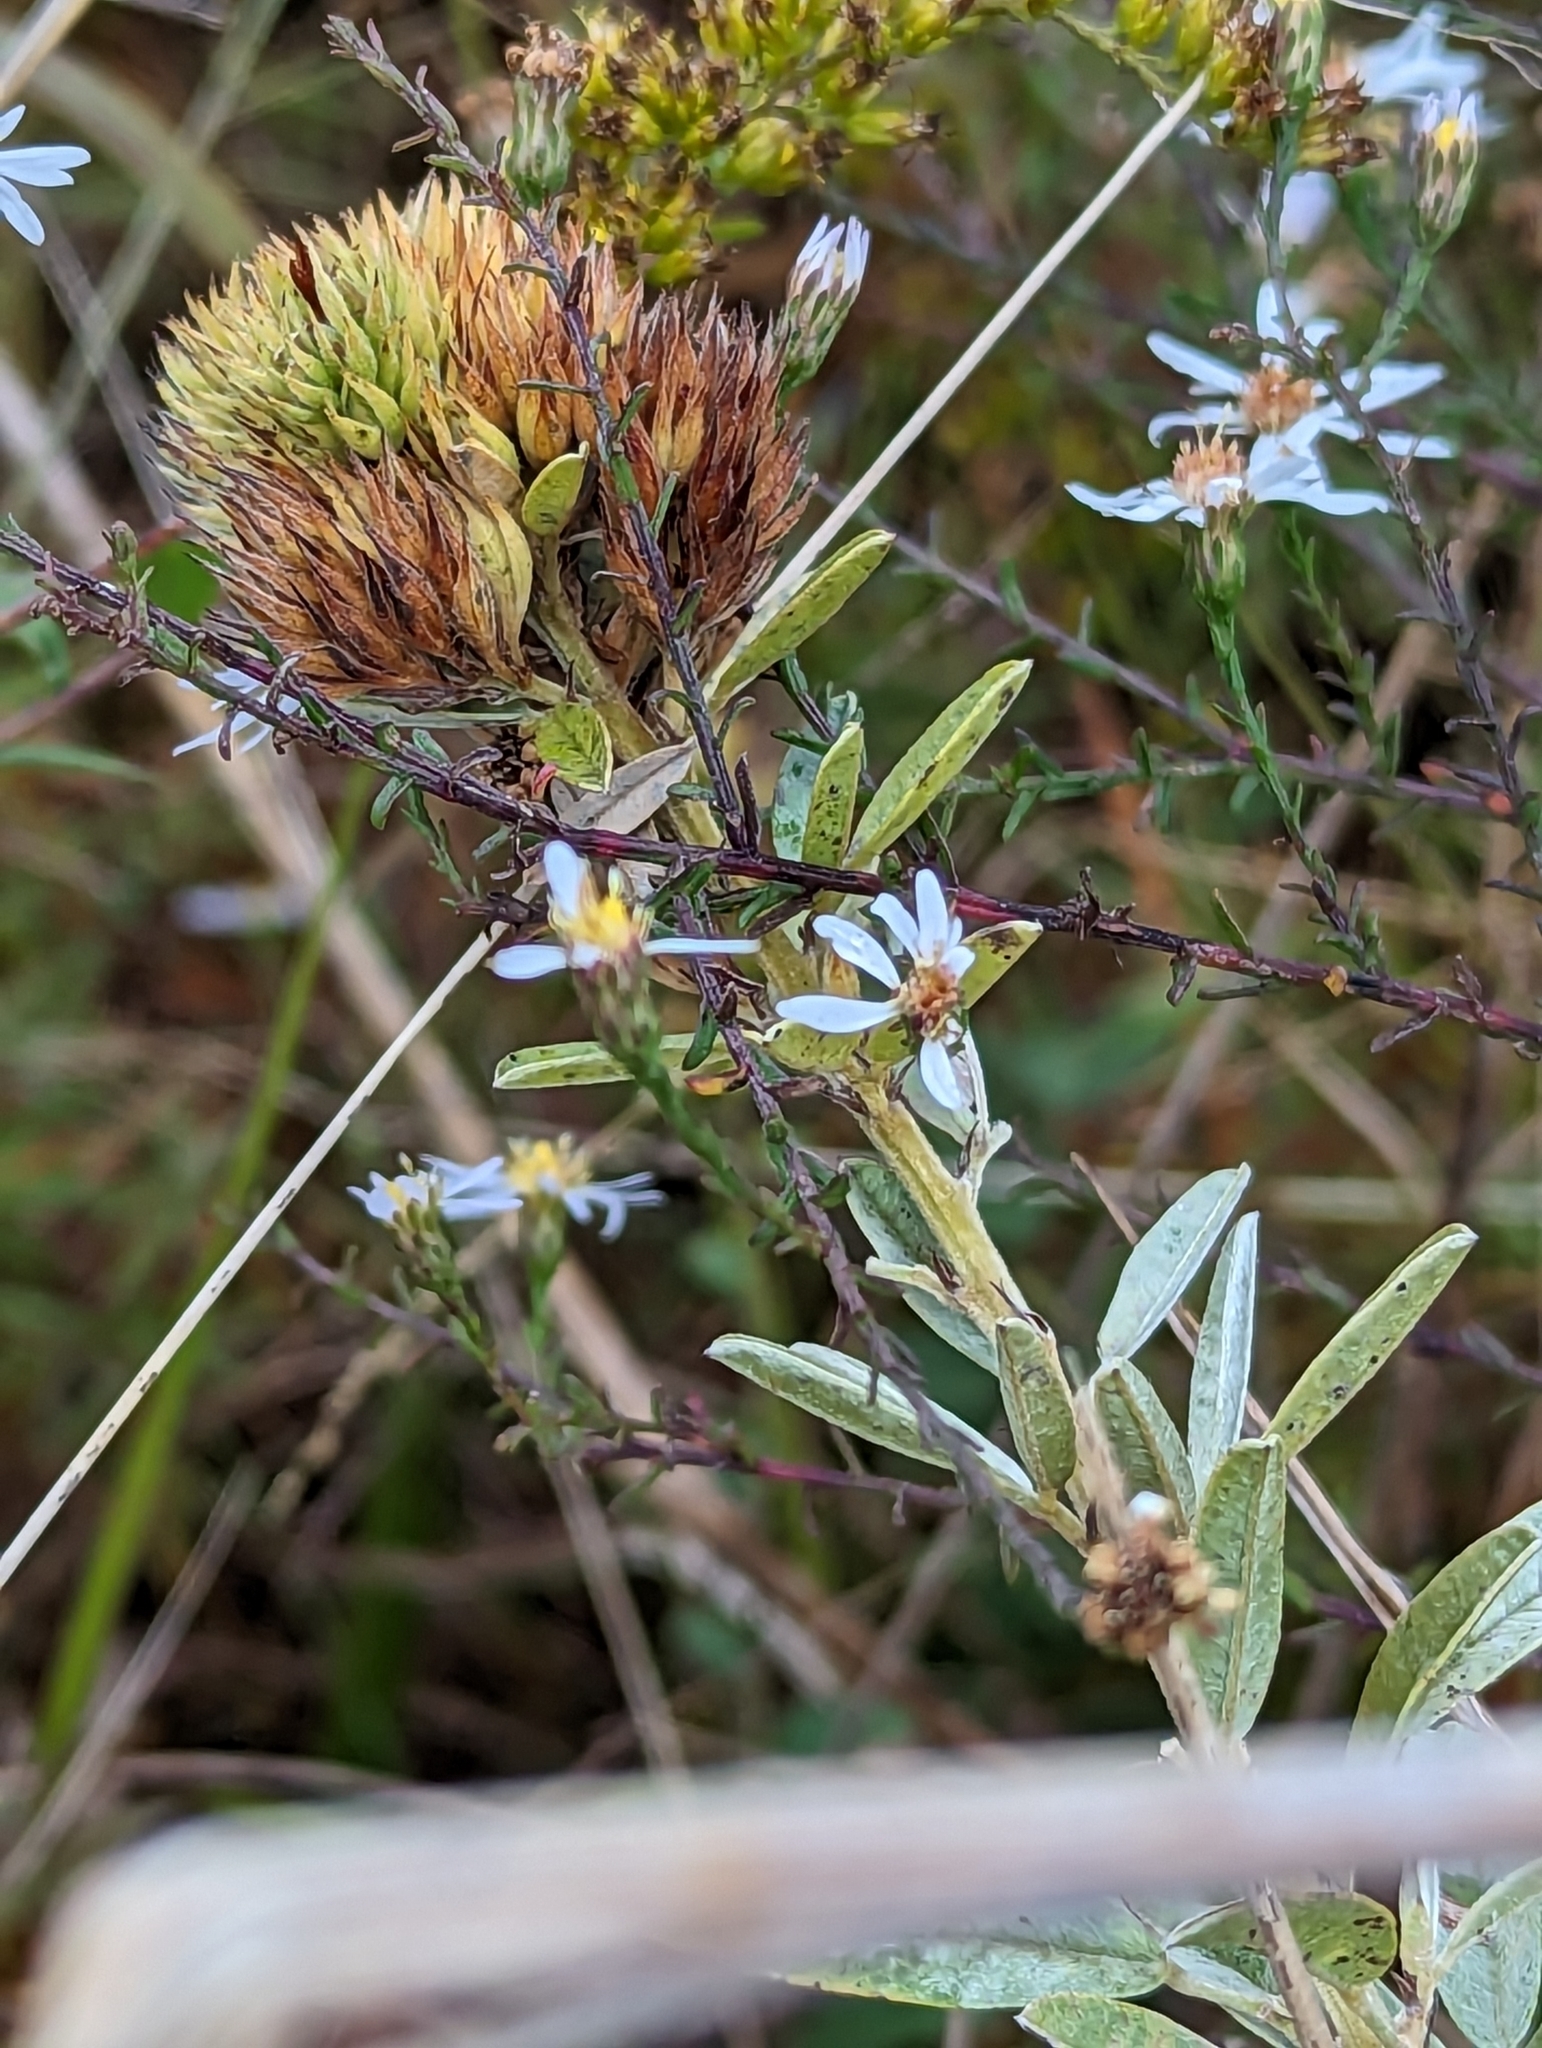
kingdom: Plantae
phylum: Tracheophyta
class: Magnoliopsida
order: Fabales
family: Fabaceae
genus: Lespedeza
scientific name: Lespedeza capitata
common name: Dusty clover
